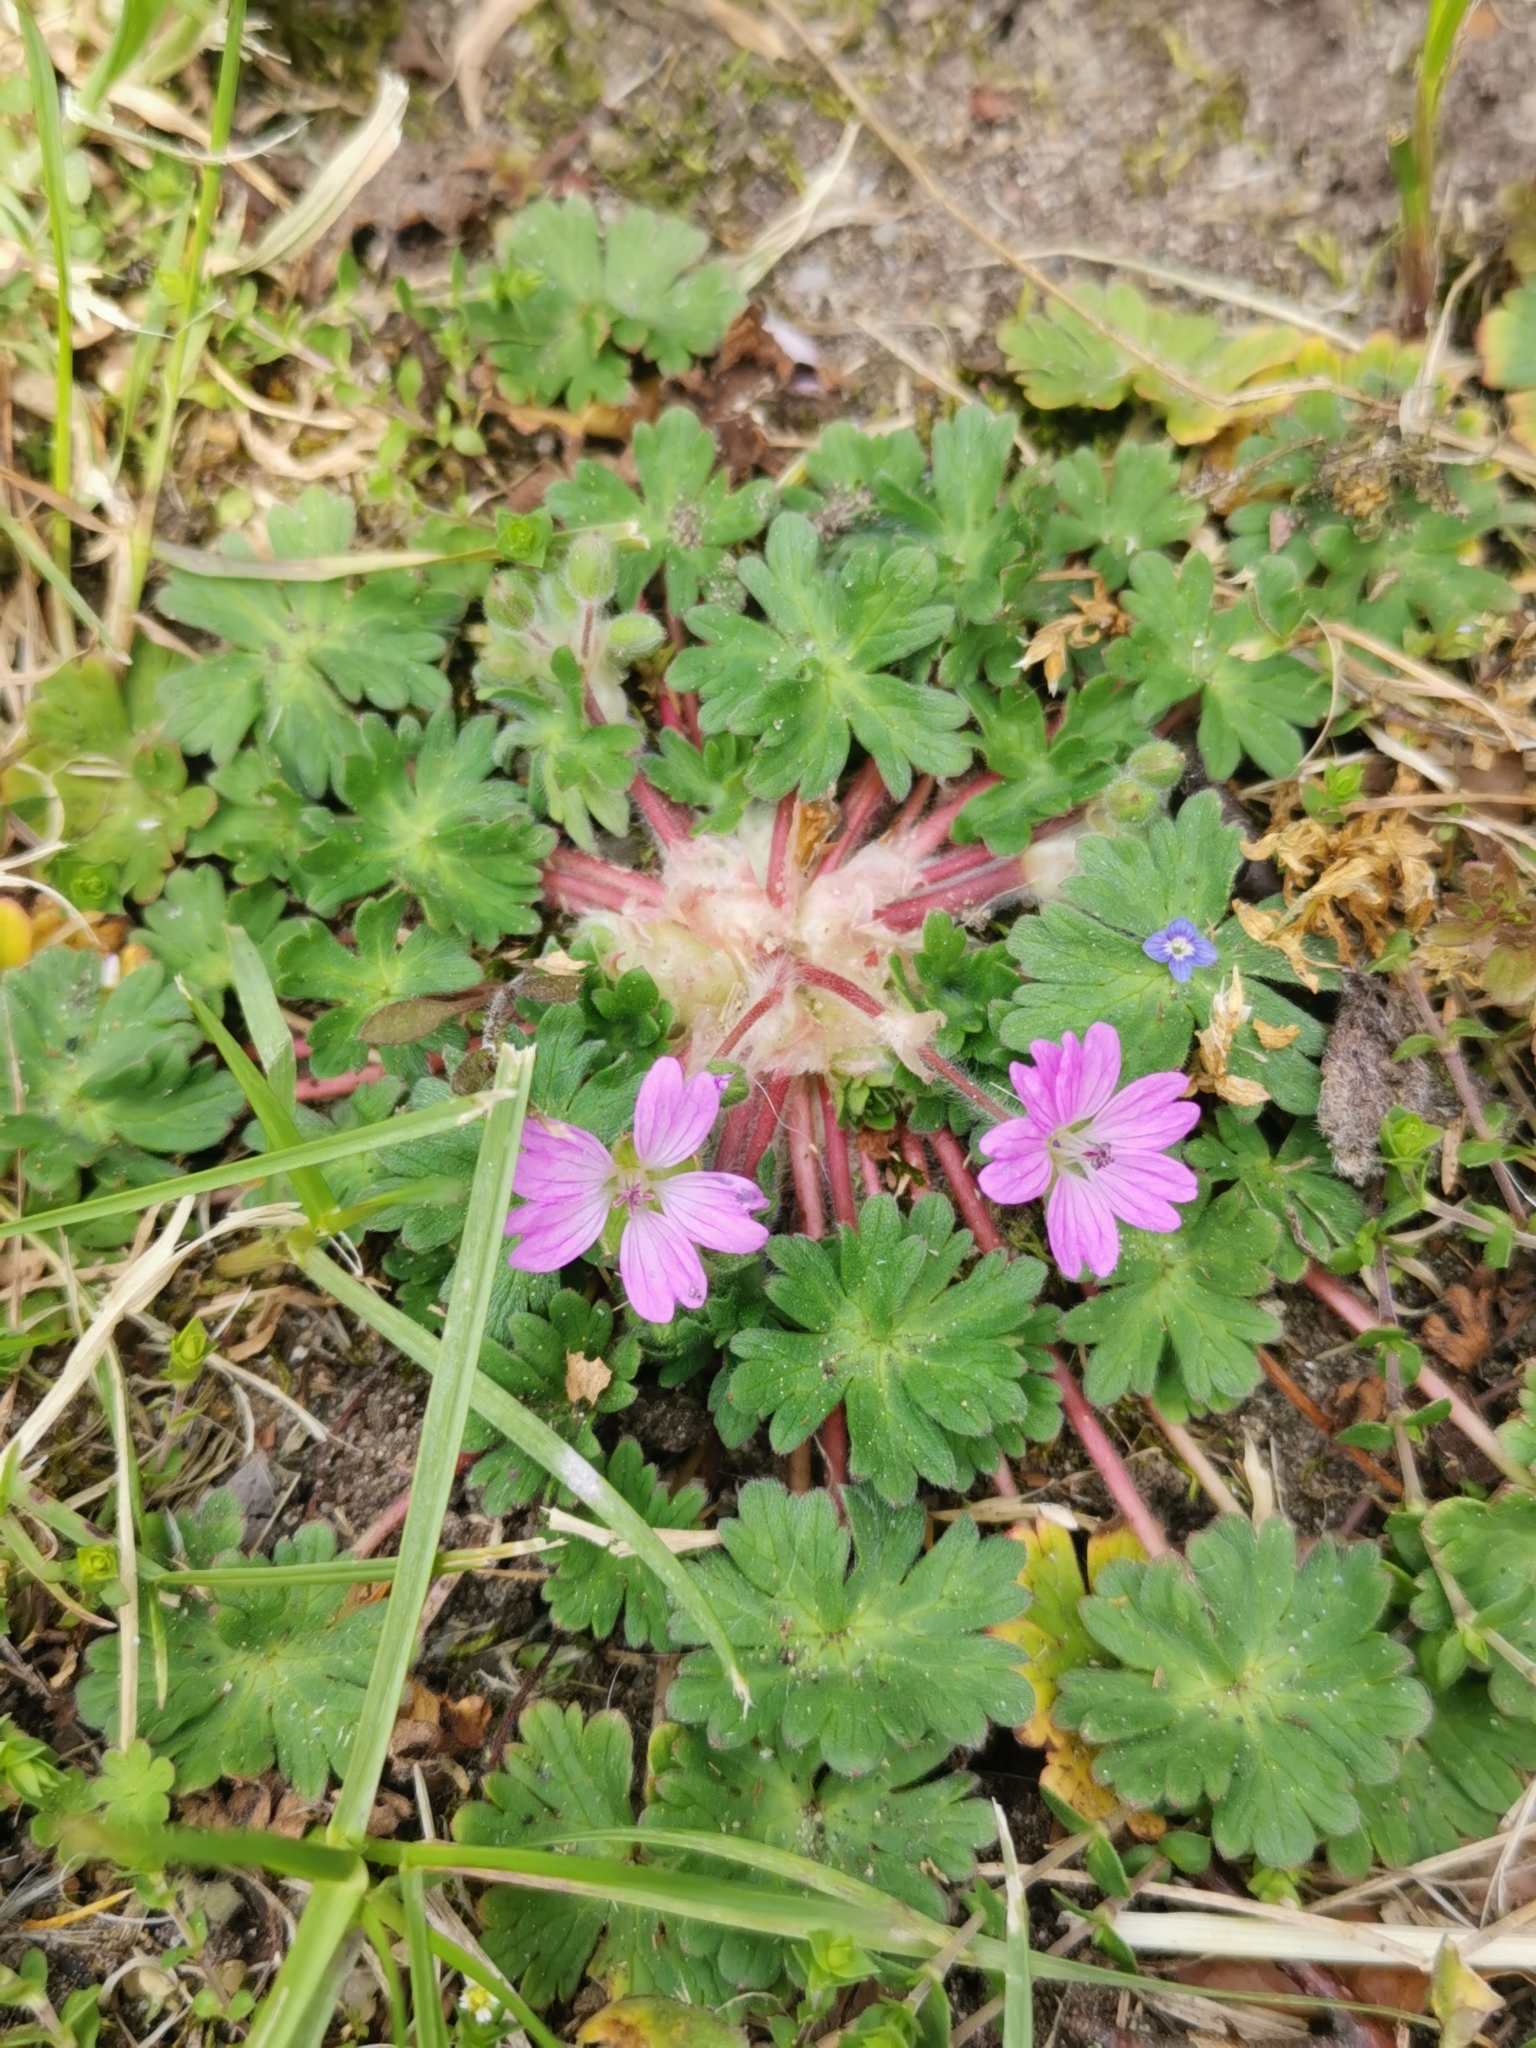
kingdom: Plantae
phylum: Tracheophyta
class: Magnoliopsida
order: Geraniales
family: Geraniaceae
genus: Geranium
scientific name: Geranium molle
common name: Dove's-foot crane's-bill
